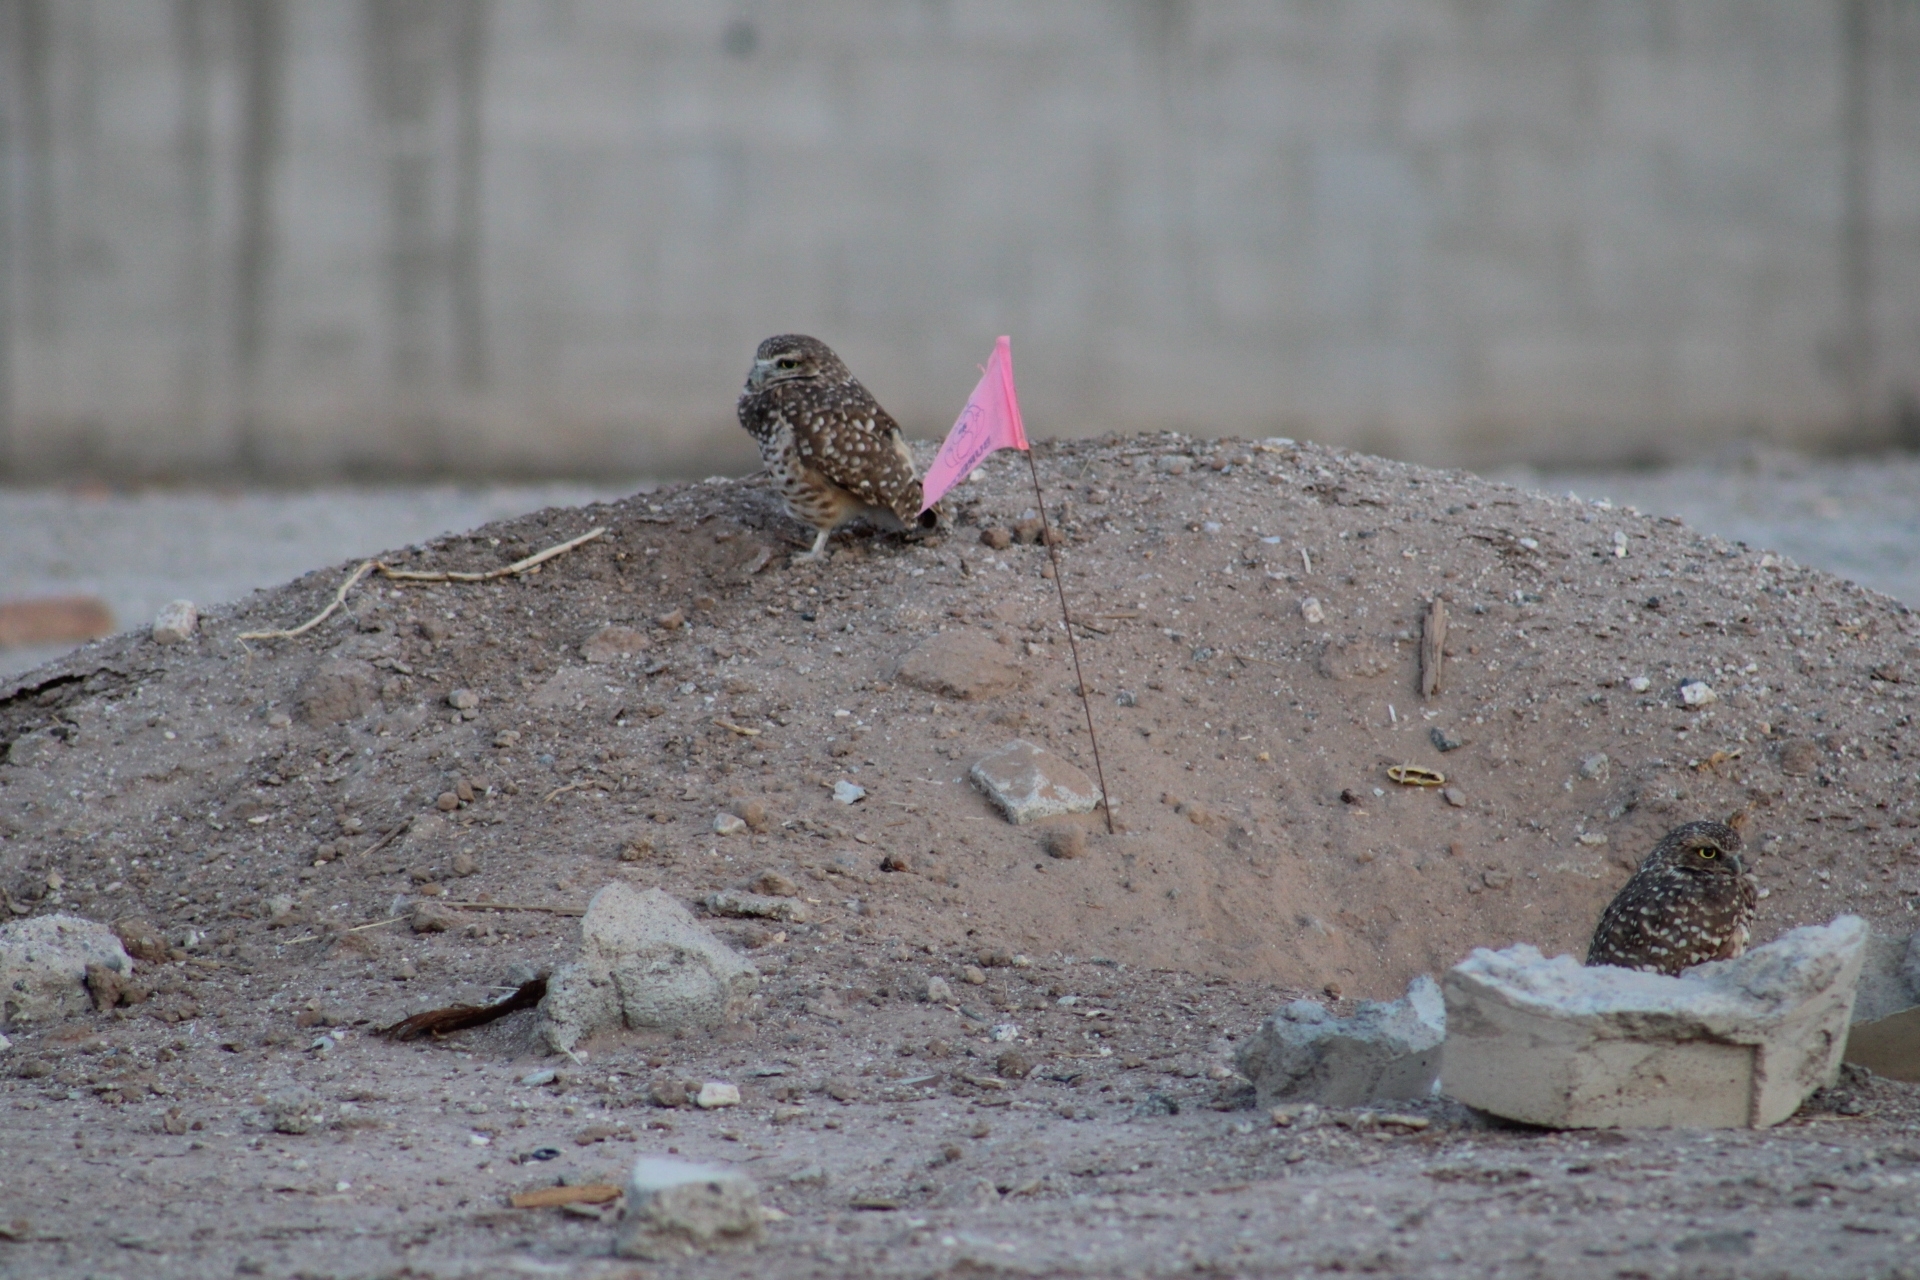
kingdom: Animalia
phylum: Chordata
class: Aves
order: Strigiformes
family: Strigidae
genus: Athene
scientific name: Athene cunicularia
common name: Burrowing owl
